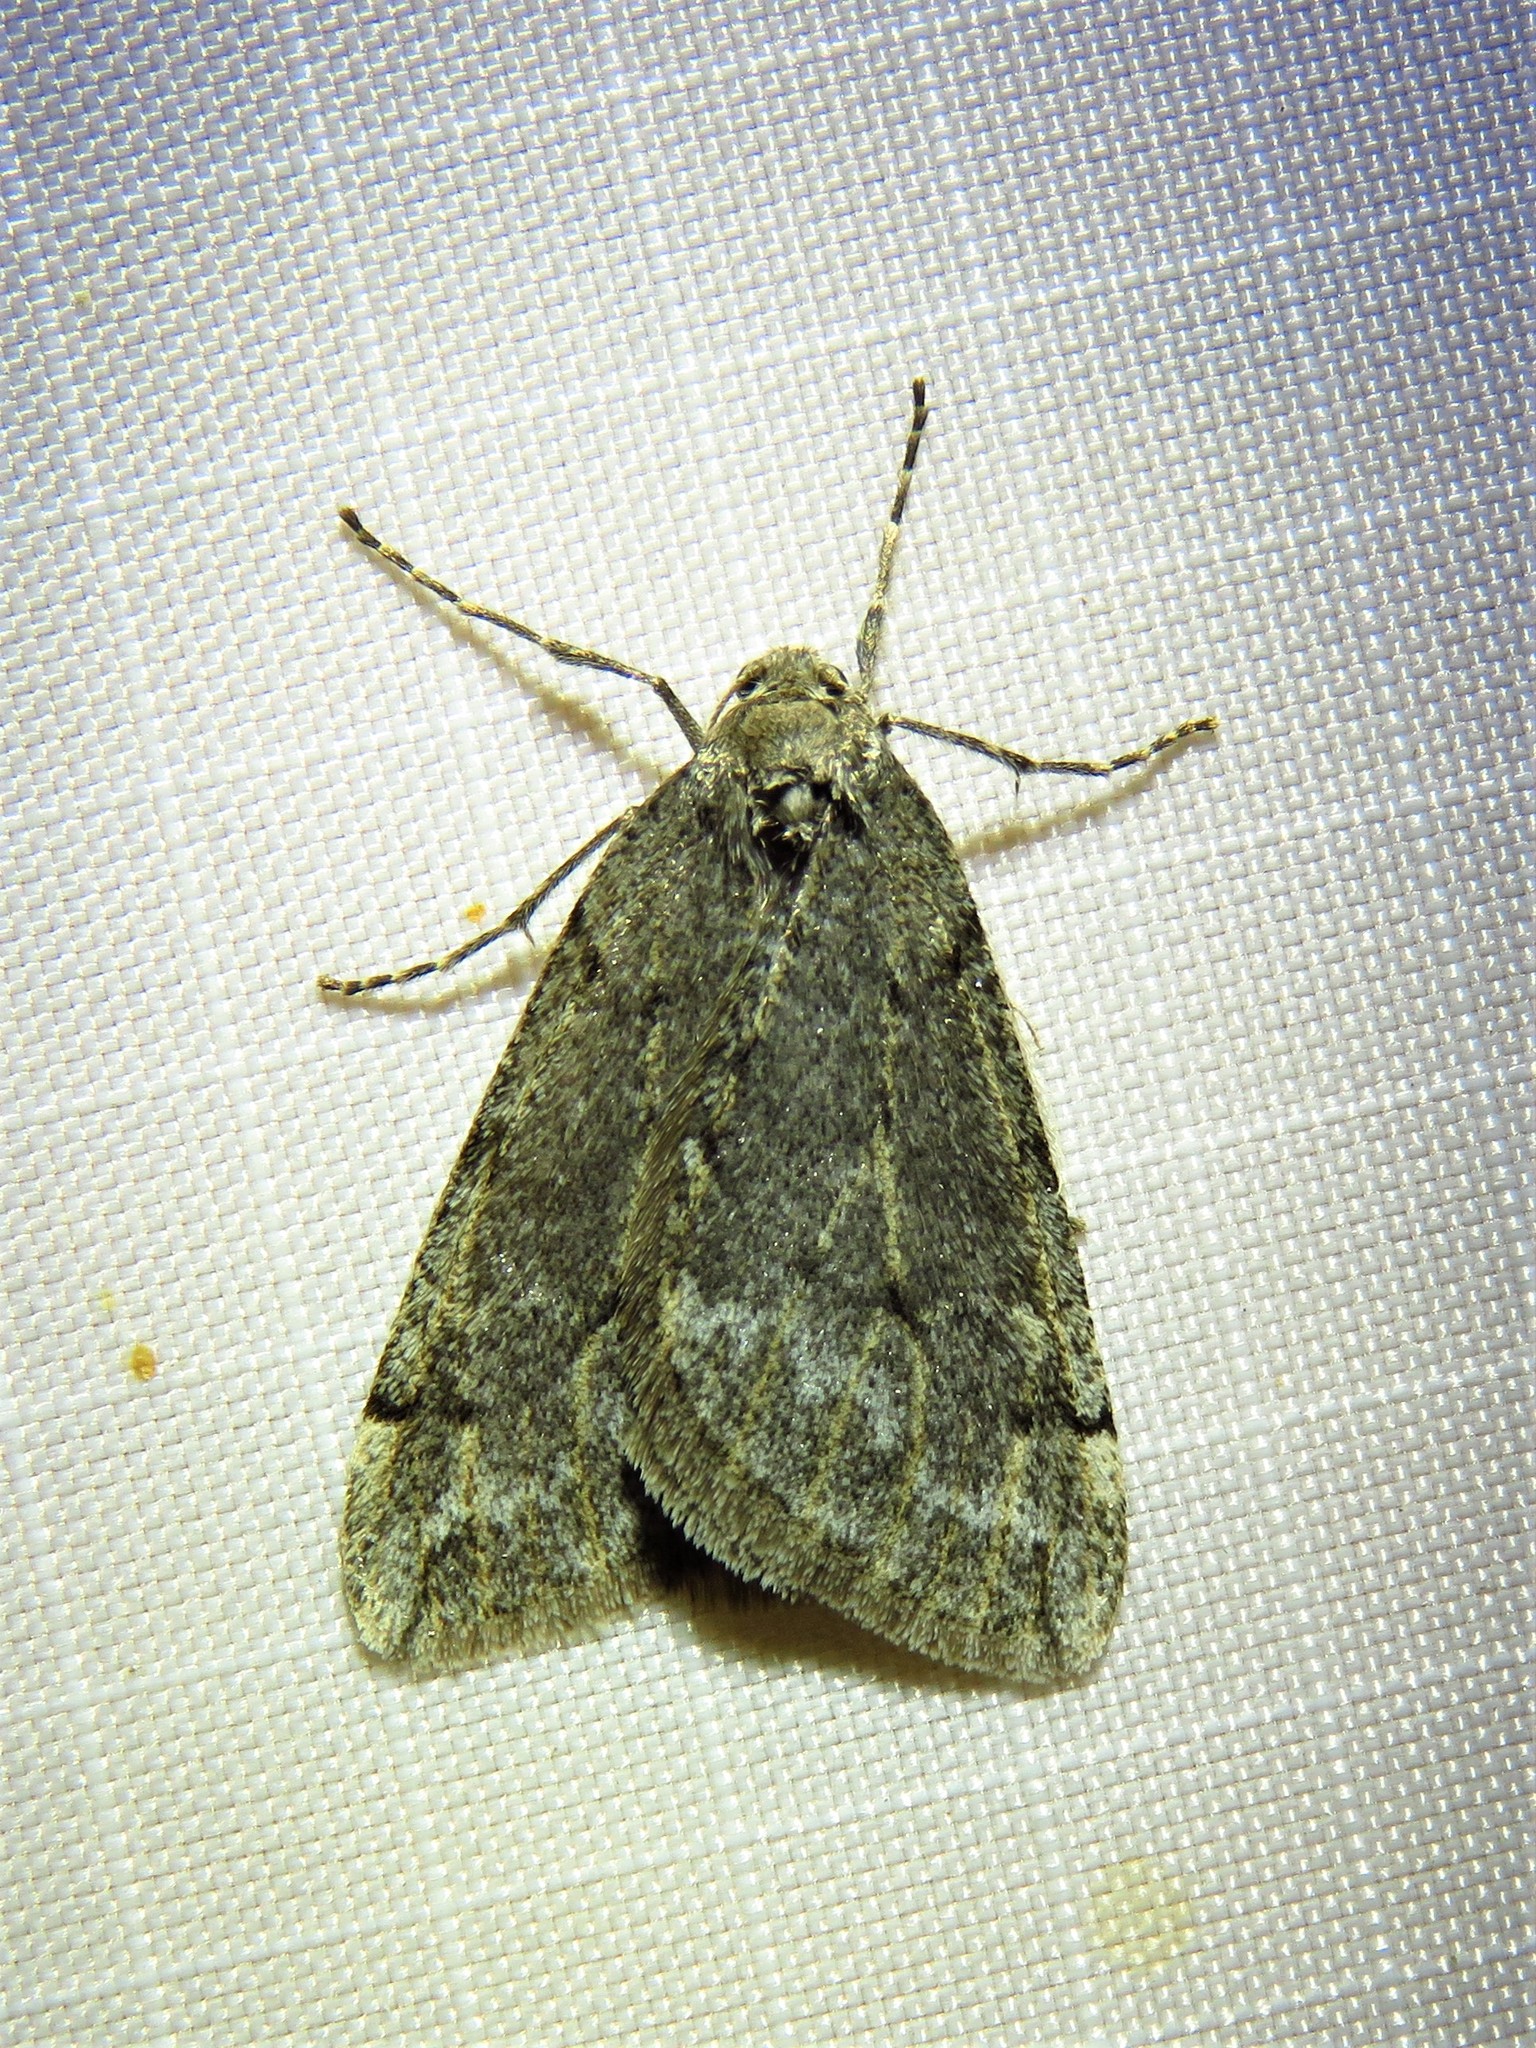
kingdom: Animalia
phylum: Arthropoda
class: Insecta
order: Lepidoptera
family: Geometridae
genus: Paleacrita
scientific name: Paleacrita vernata
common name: Spring cankerworm
